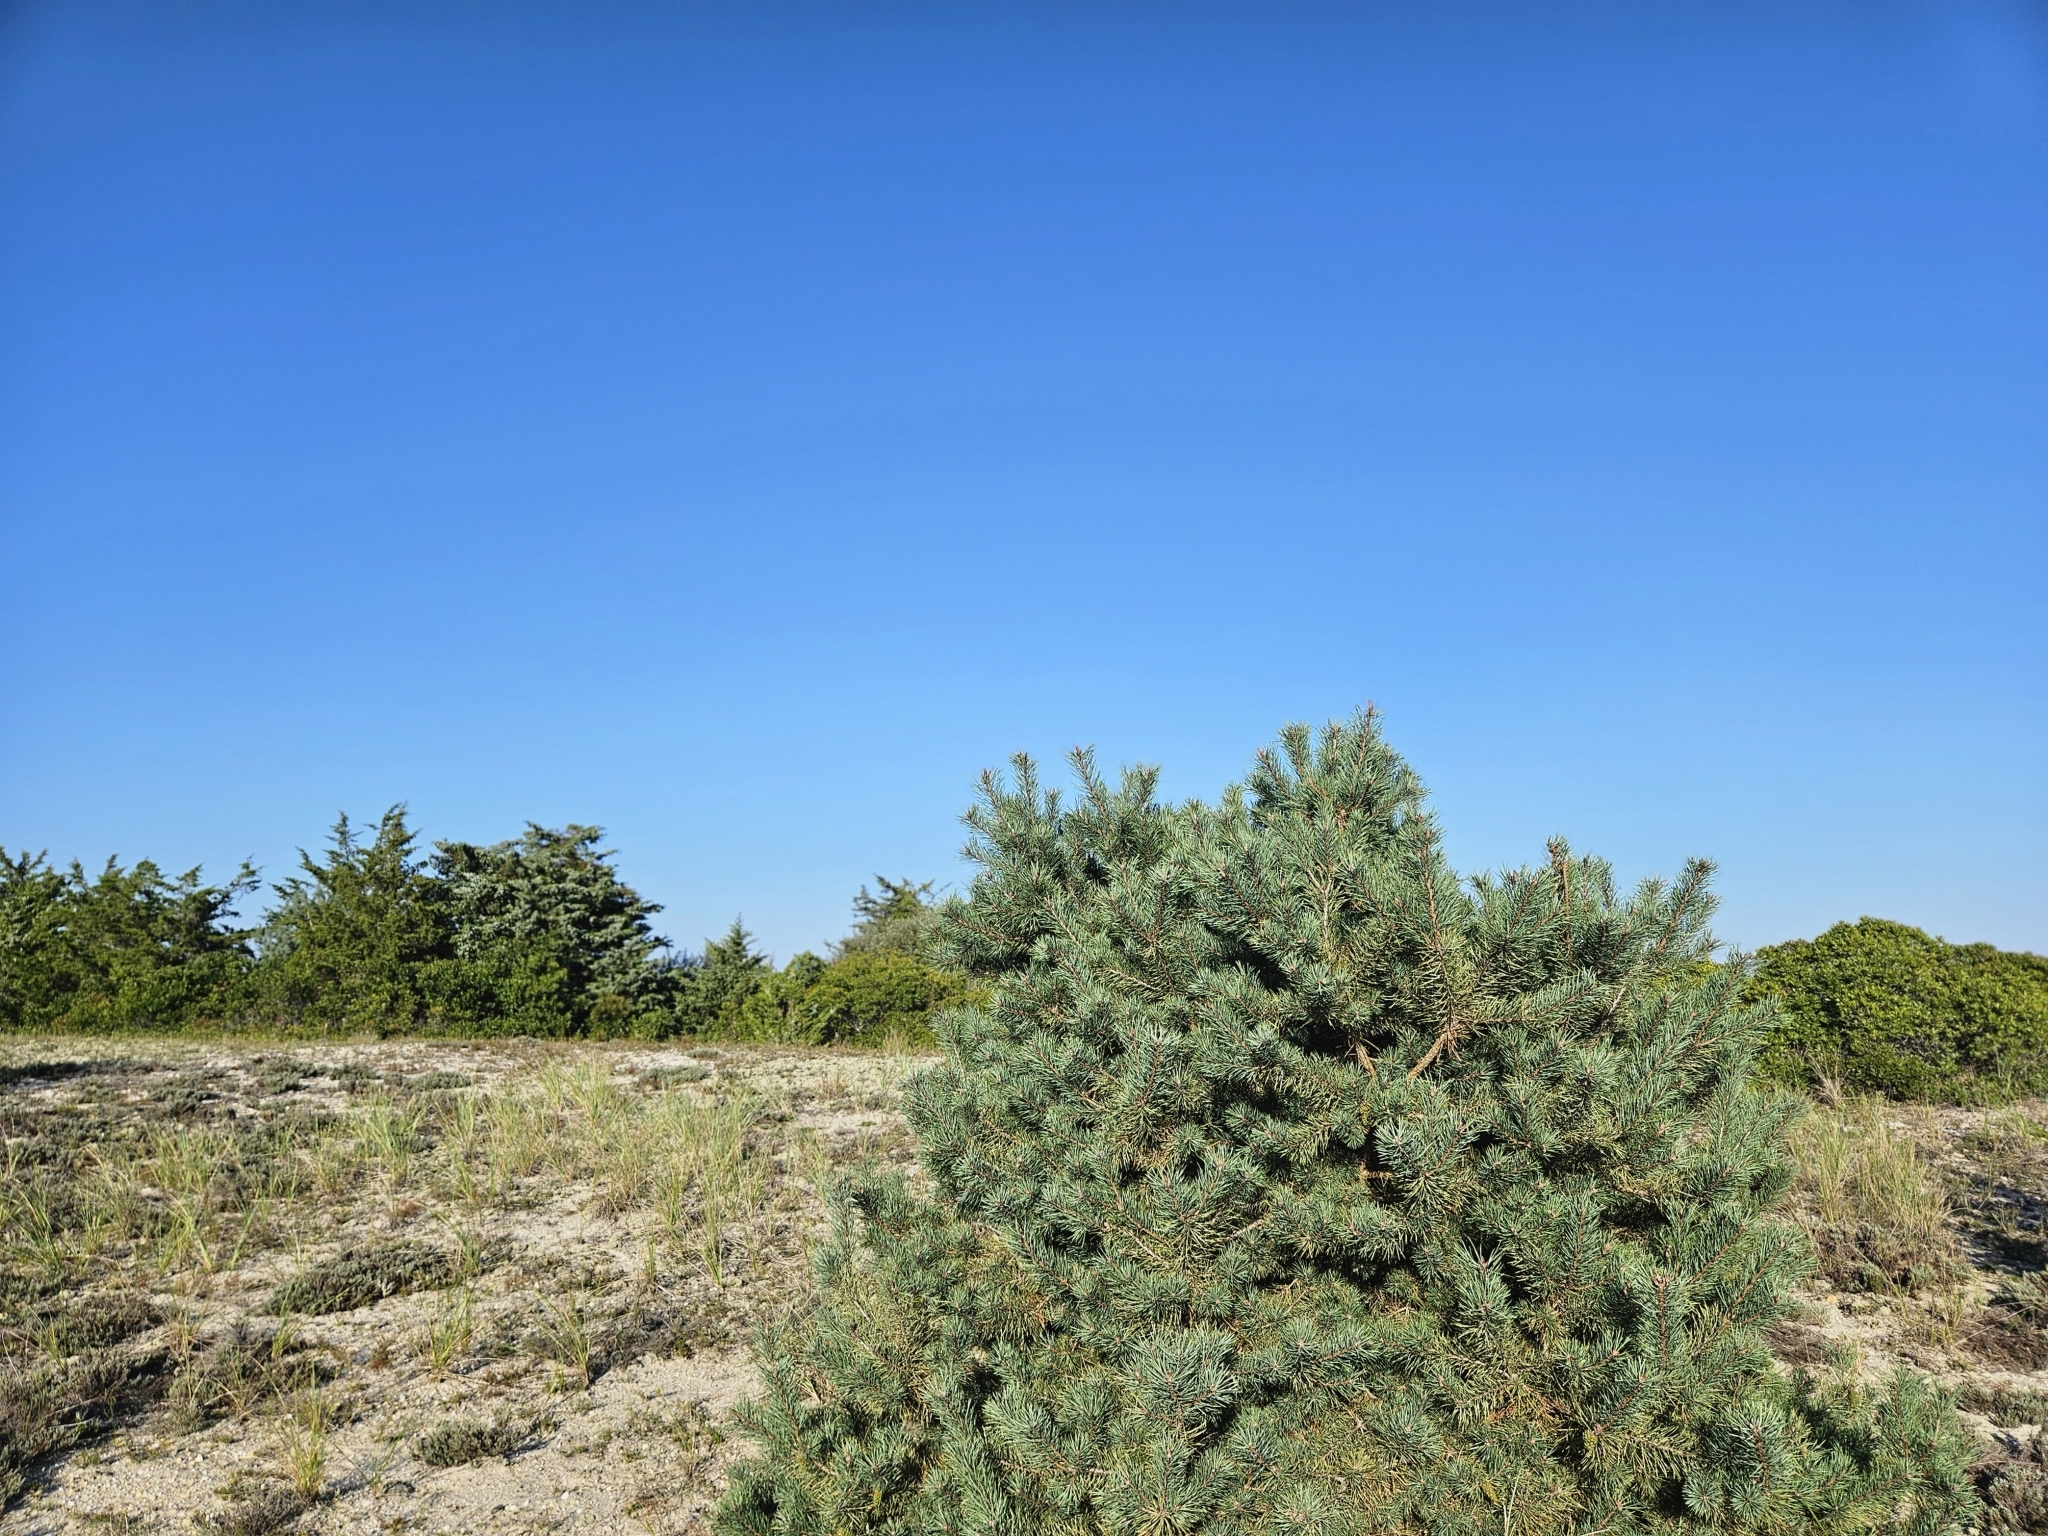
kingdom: Plantae
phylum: Tracheophyta
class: Pinopsida
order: Pinales
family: Pinaceae
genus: Pinus
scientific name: Pinus sylvestris
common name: Scots pine
